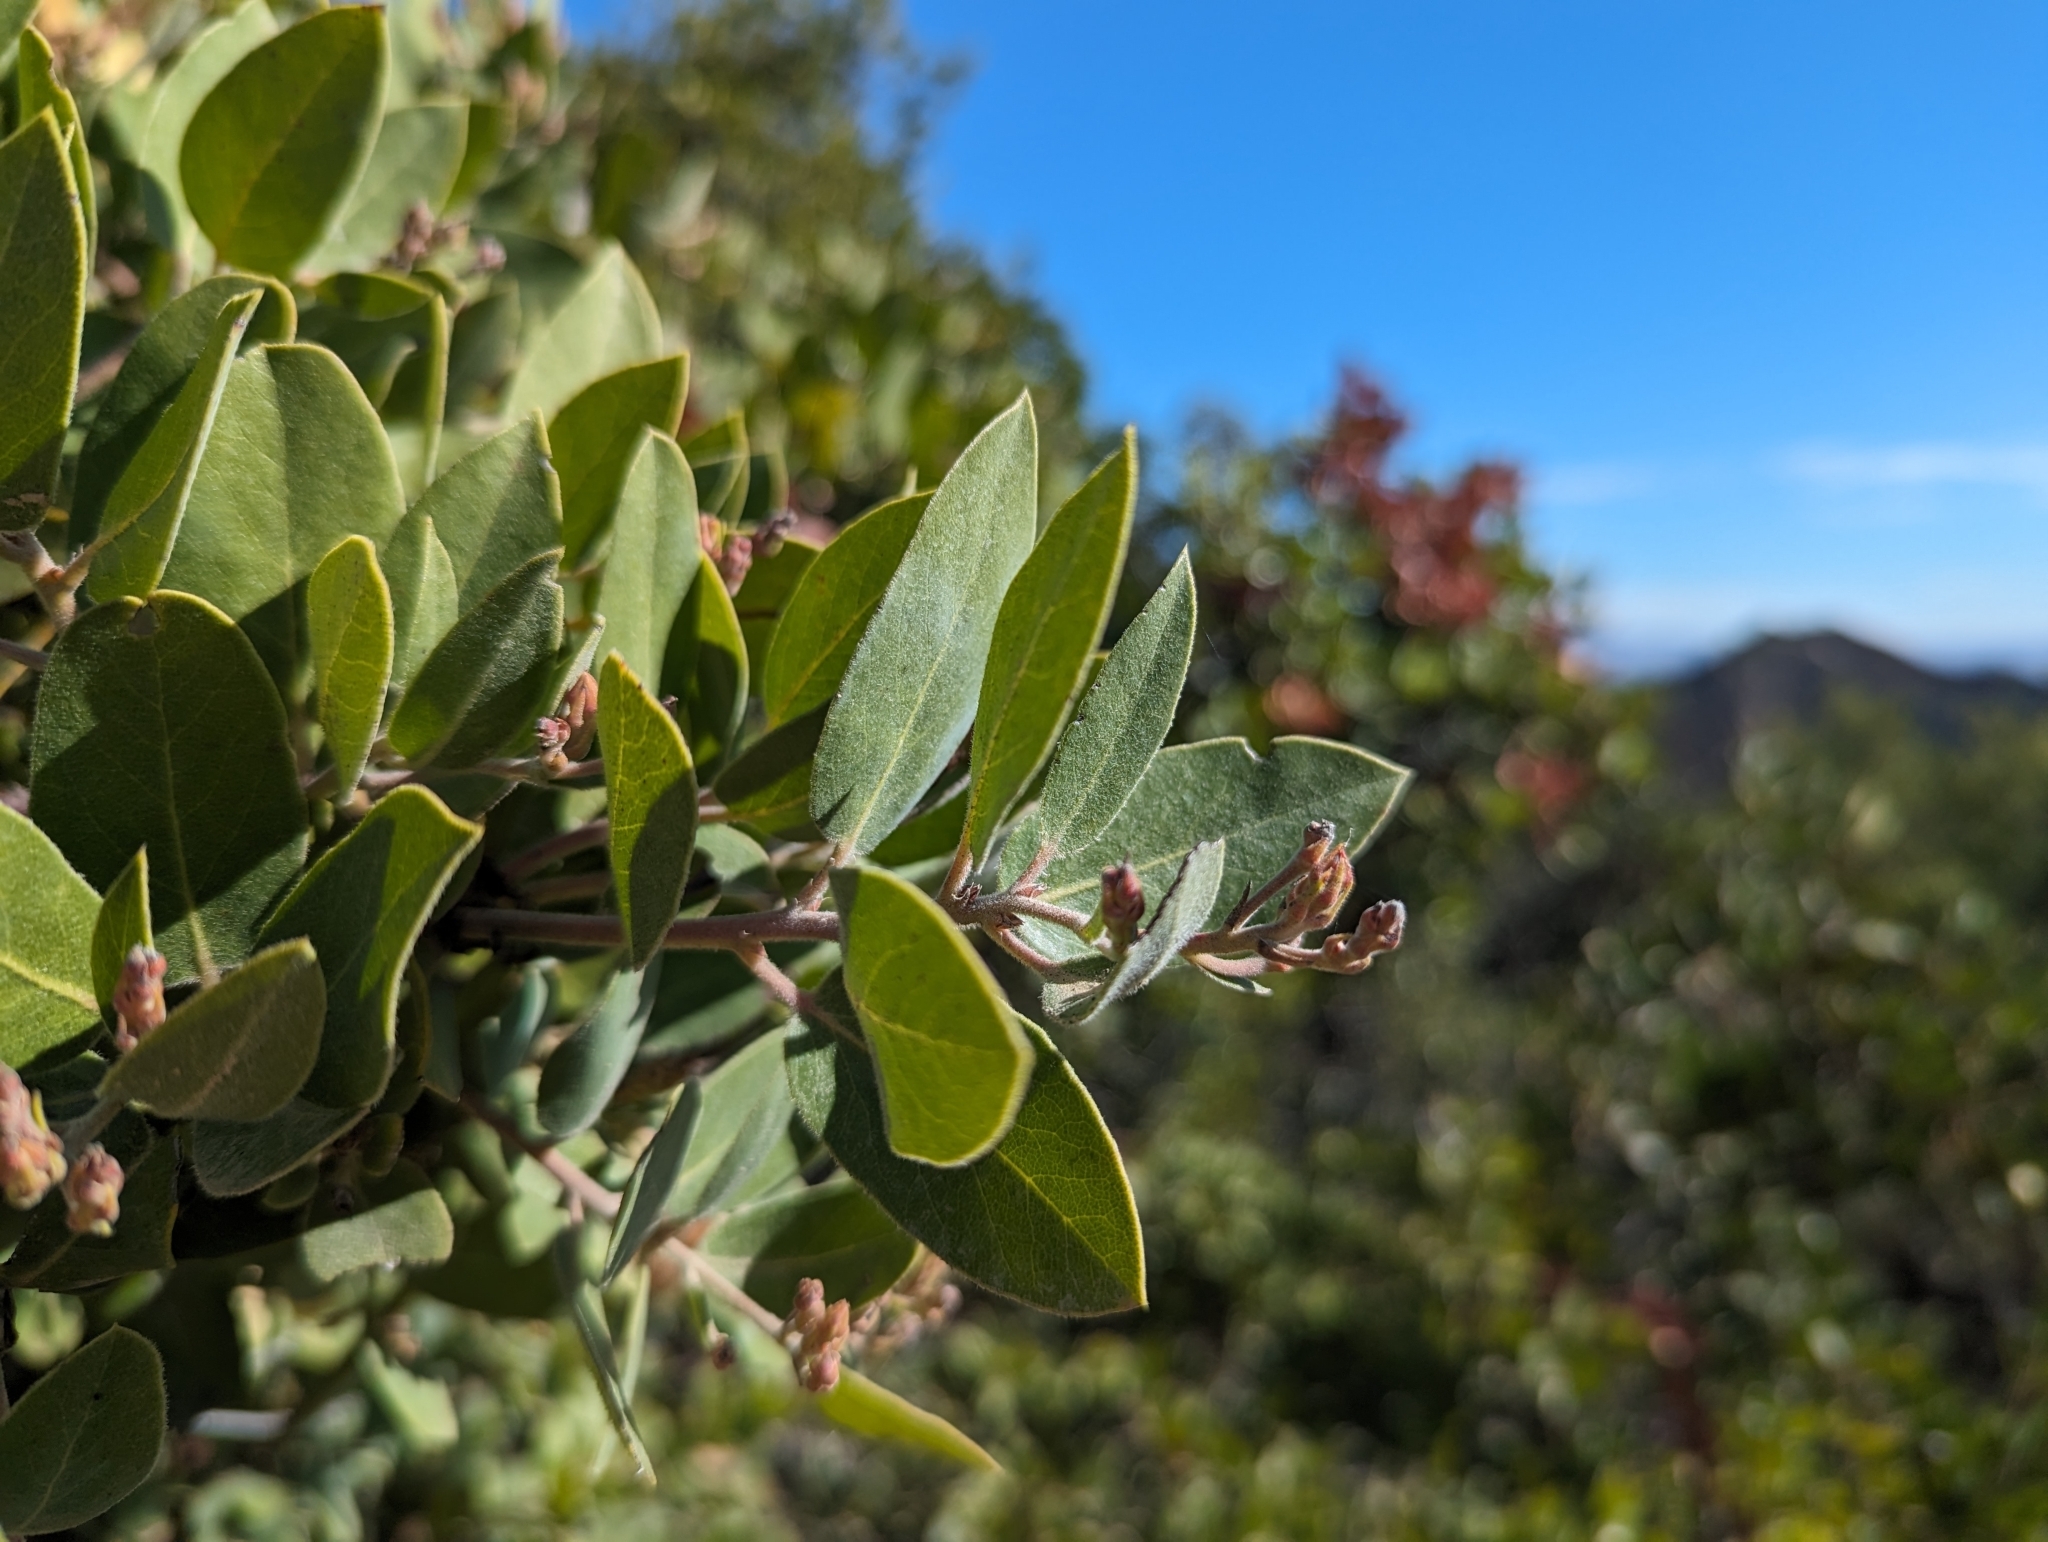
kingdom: Plantae
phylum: Tracheophyta
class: Magnoliopsida
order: Ericales
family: Ericaceae
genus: Arctostaphylos
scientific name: Arctostaphylos crustacea
